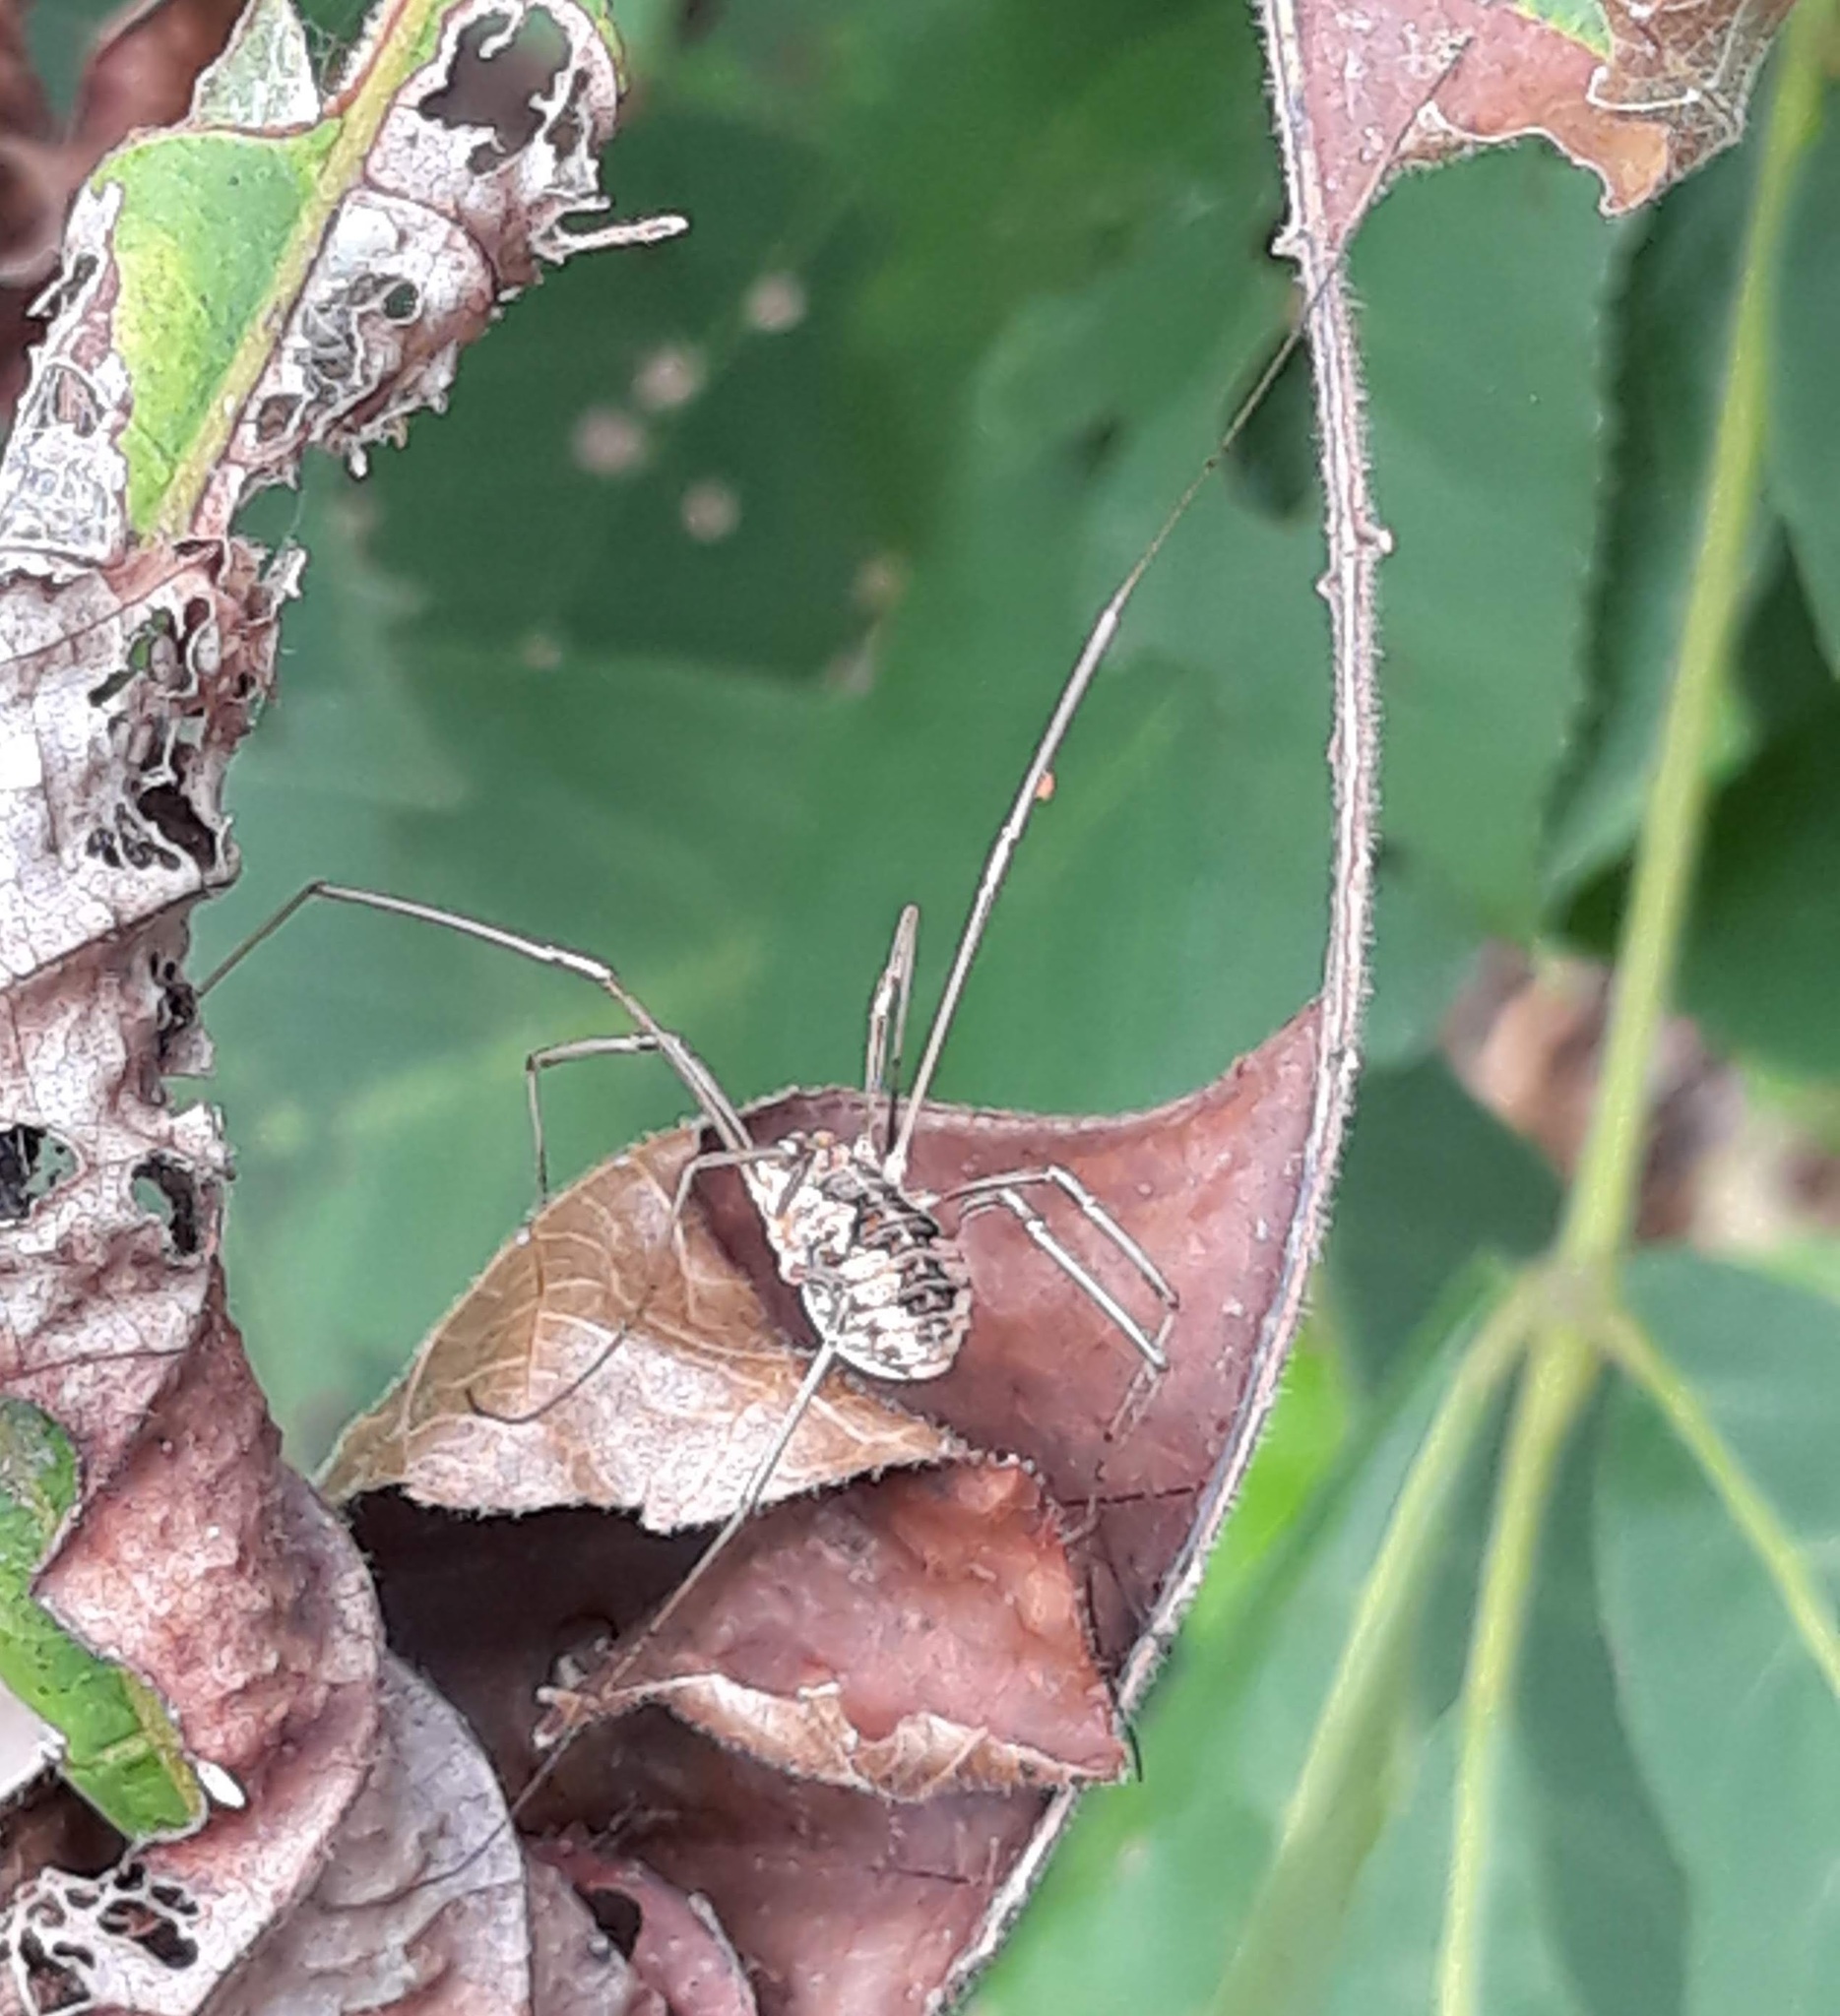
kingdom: Animalia
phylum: Arthropoda
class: Arachnida
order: Opiliones
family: Phalangiidae
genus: Phalangium
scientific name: Phalangium opilio
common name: Daddy longleg
